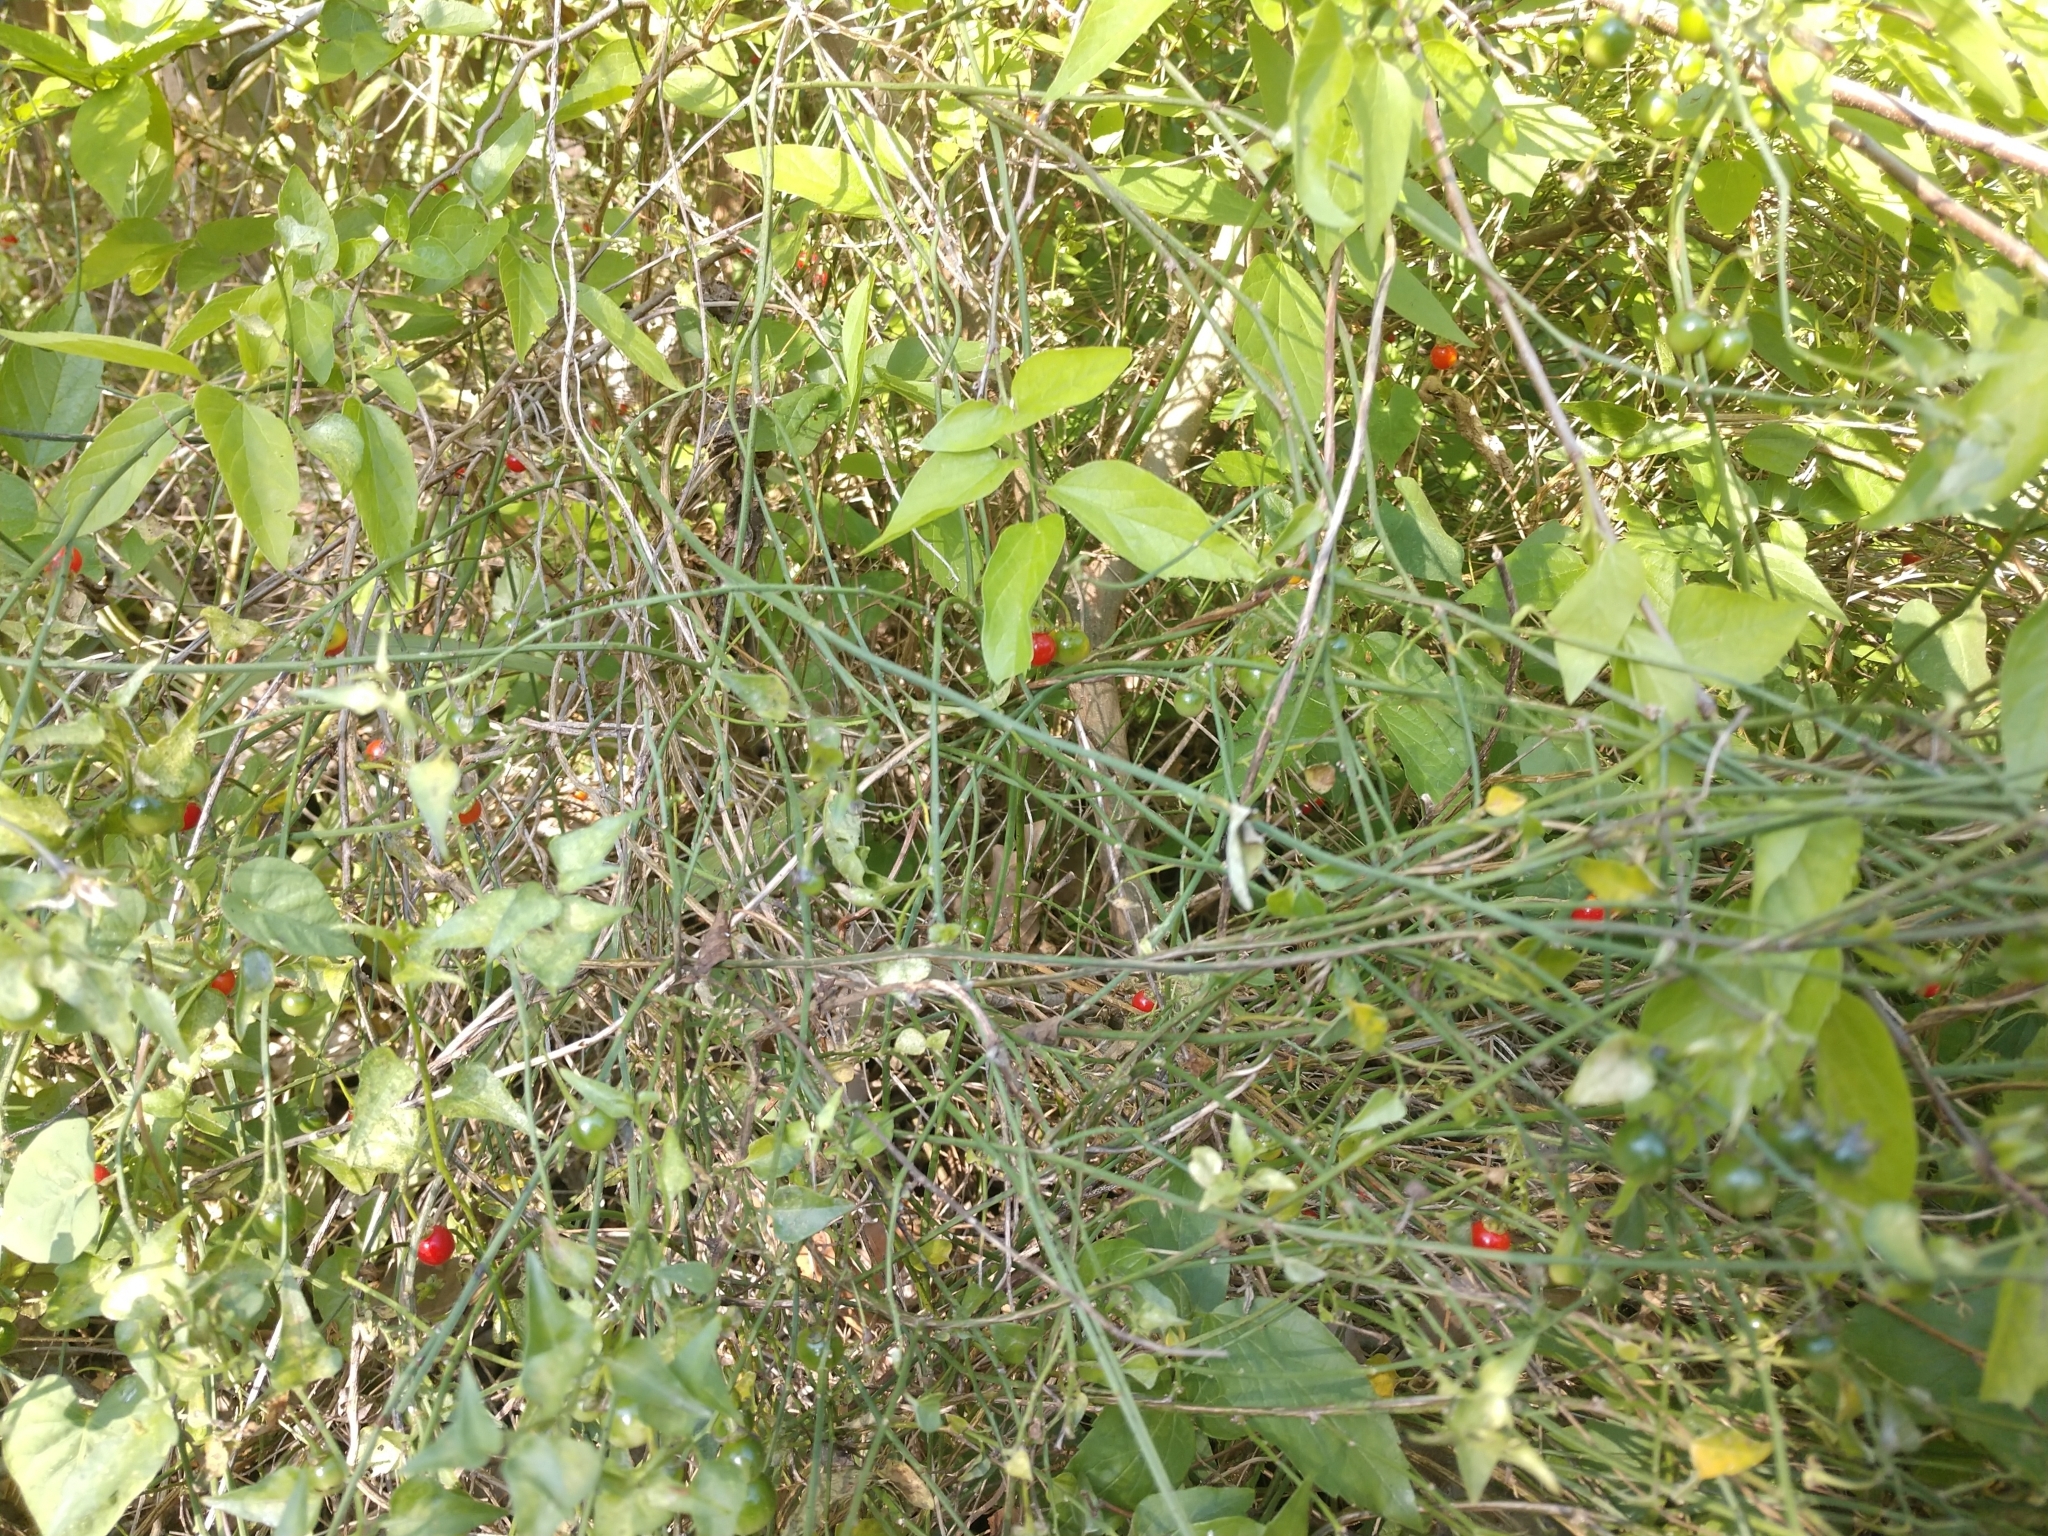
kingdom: Plantae
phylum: Tracheophyta
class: Magnoliopsida
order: Solanales
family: Solanaceae
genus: Solanum
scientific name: Solanum triquetrum
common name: Texas nightshade
